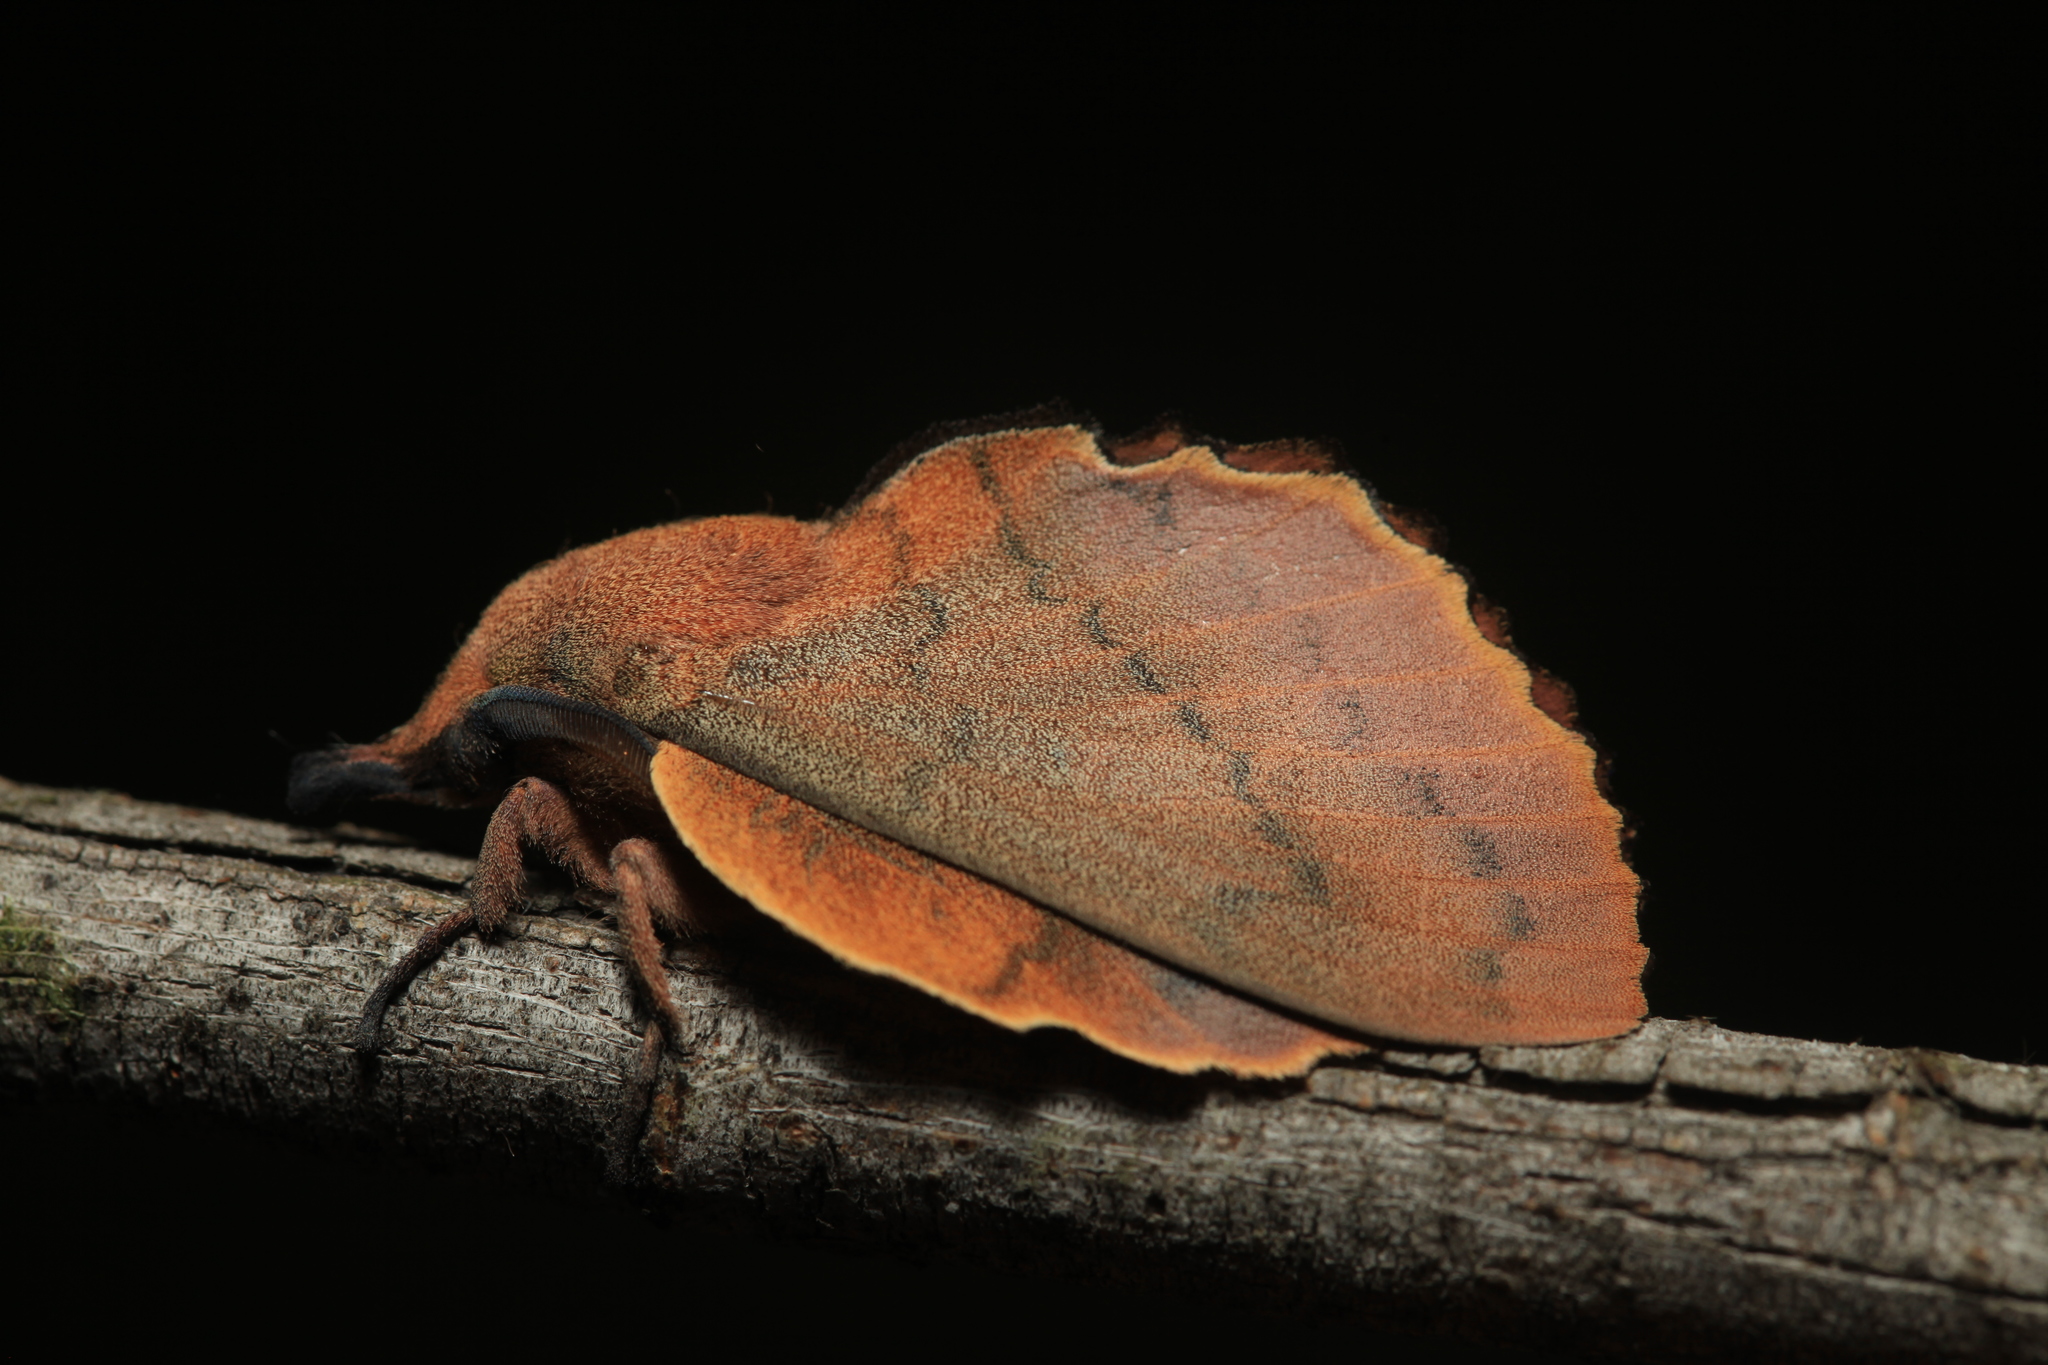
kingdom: Animalia
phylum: Arthropoda
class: Insecta
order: Lepidoptera
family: Lasiocampidae
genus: Gastropacha
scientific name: Gastropacha quercifolia
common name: Lappet
